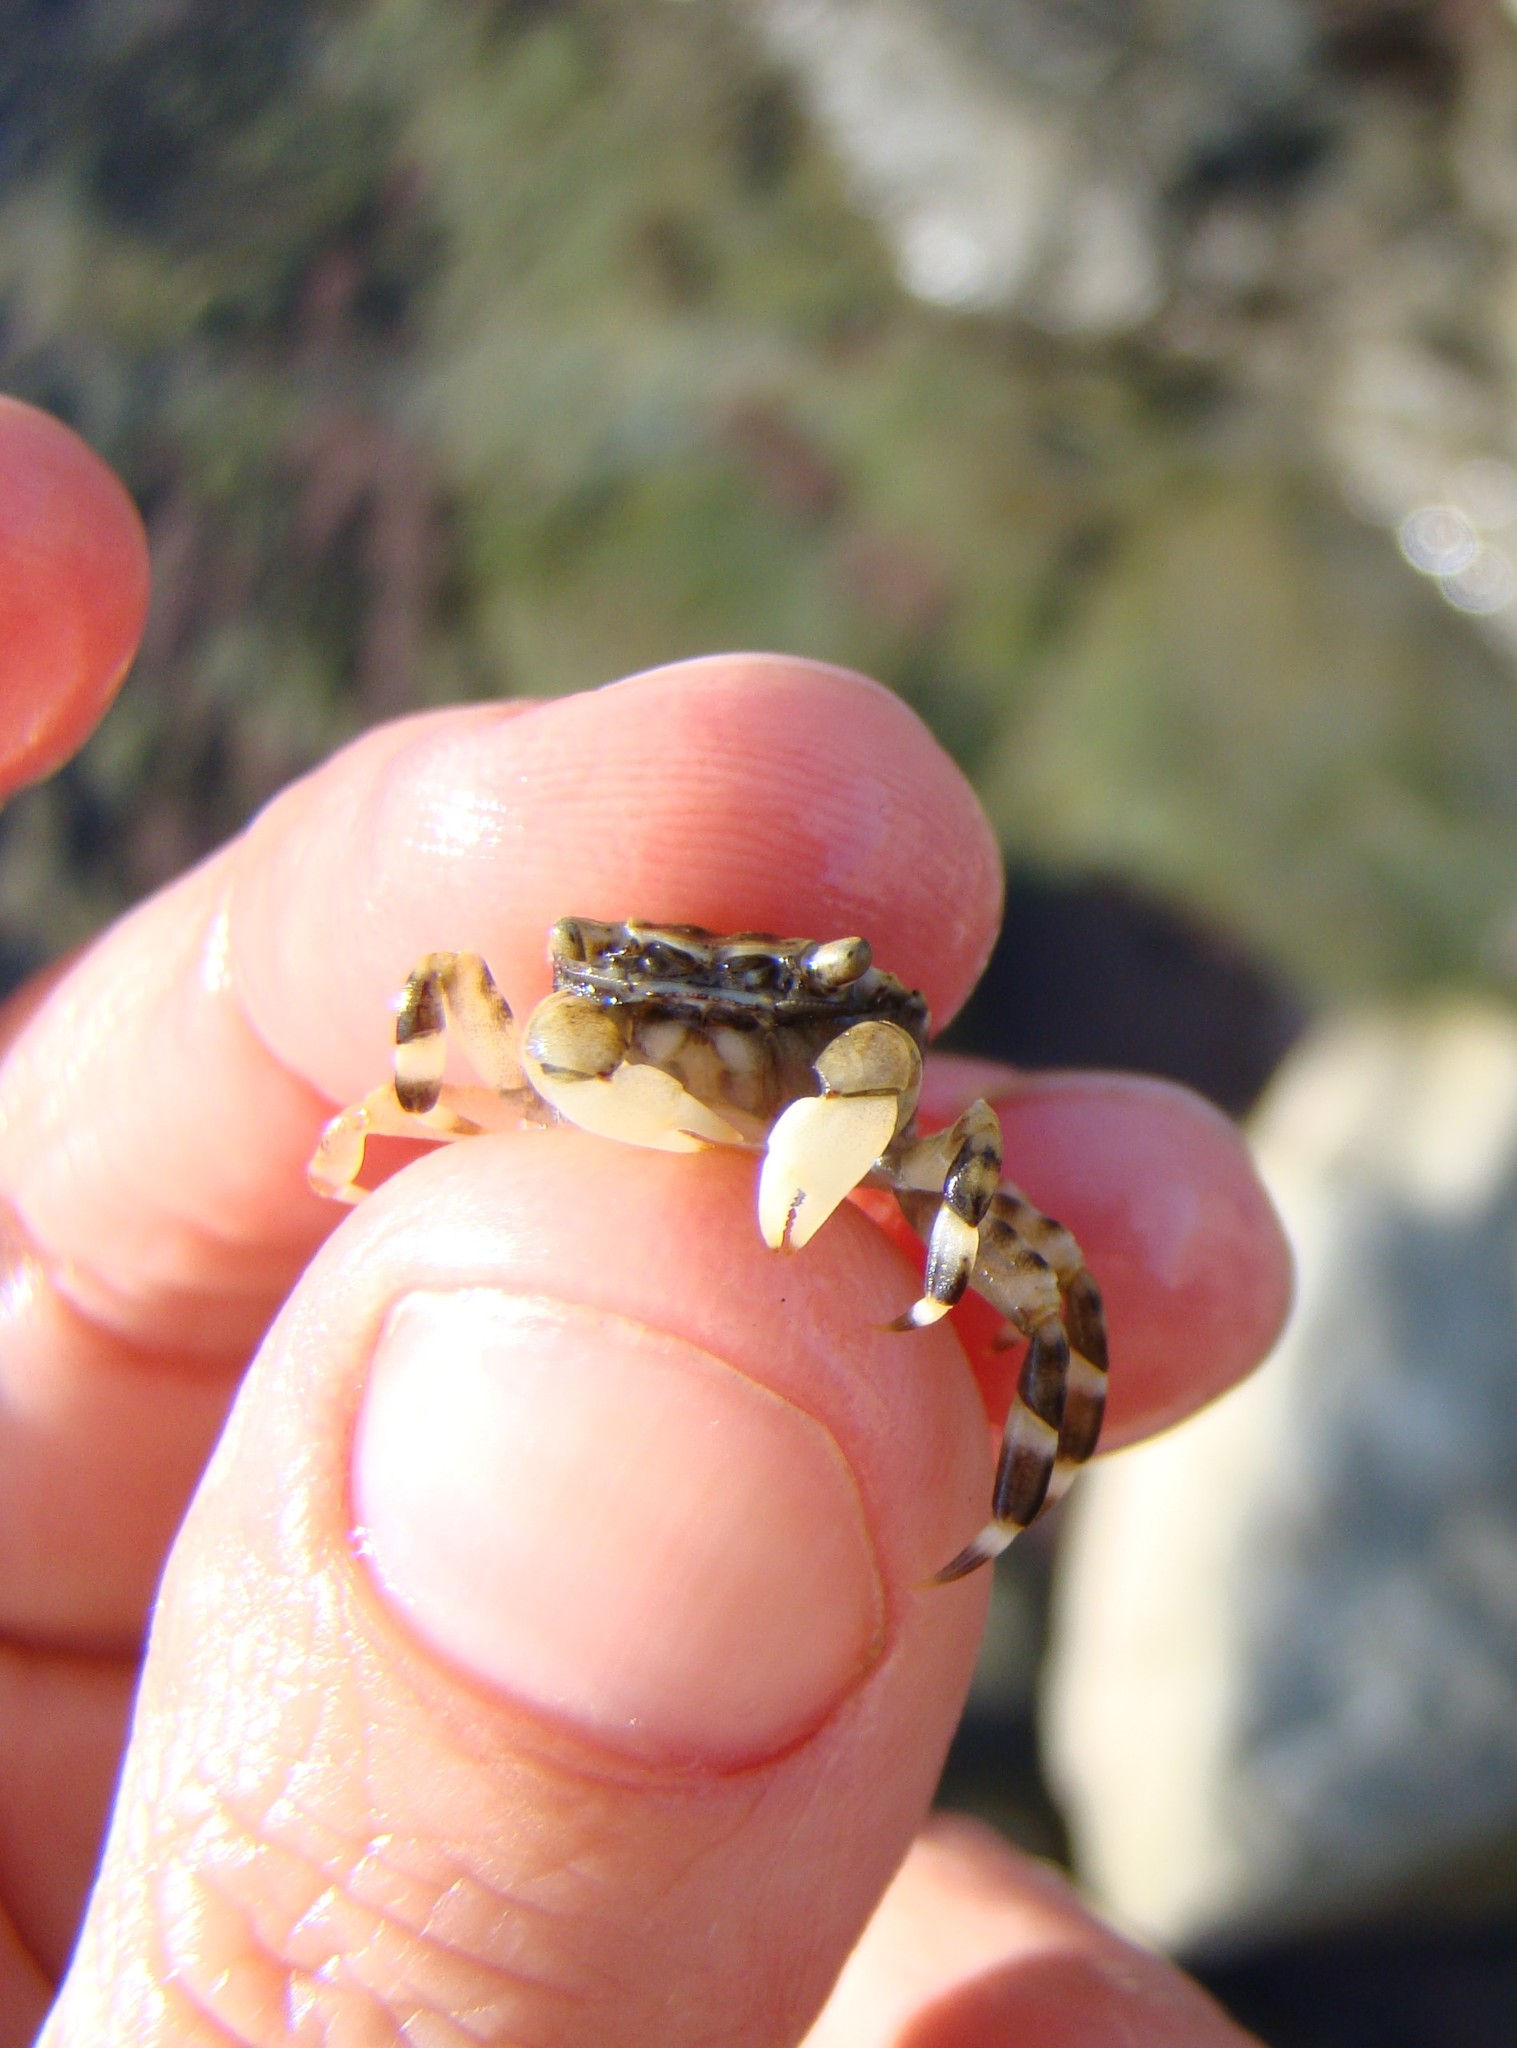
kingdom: Animalia
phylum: Arthropoda
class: Malacostraca
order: Decapoda
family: Varunidae
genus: Hemigrapsus
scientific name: Hemigrapsus sexdentatus
